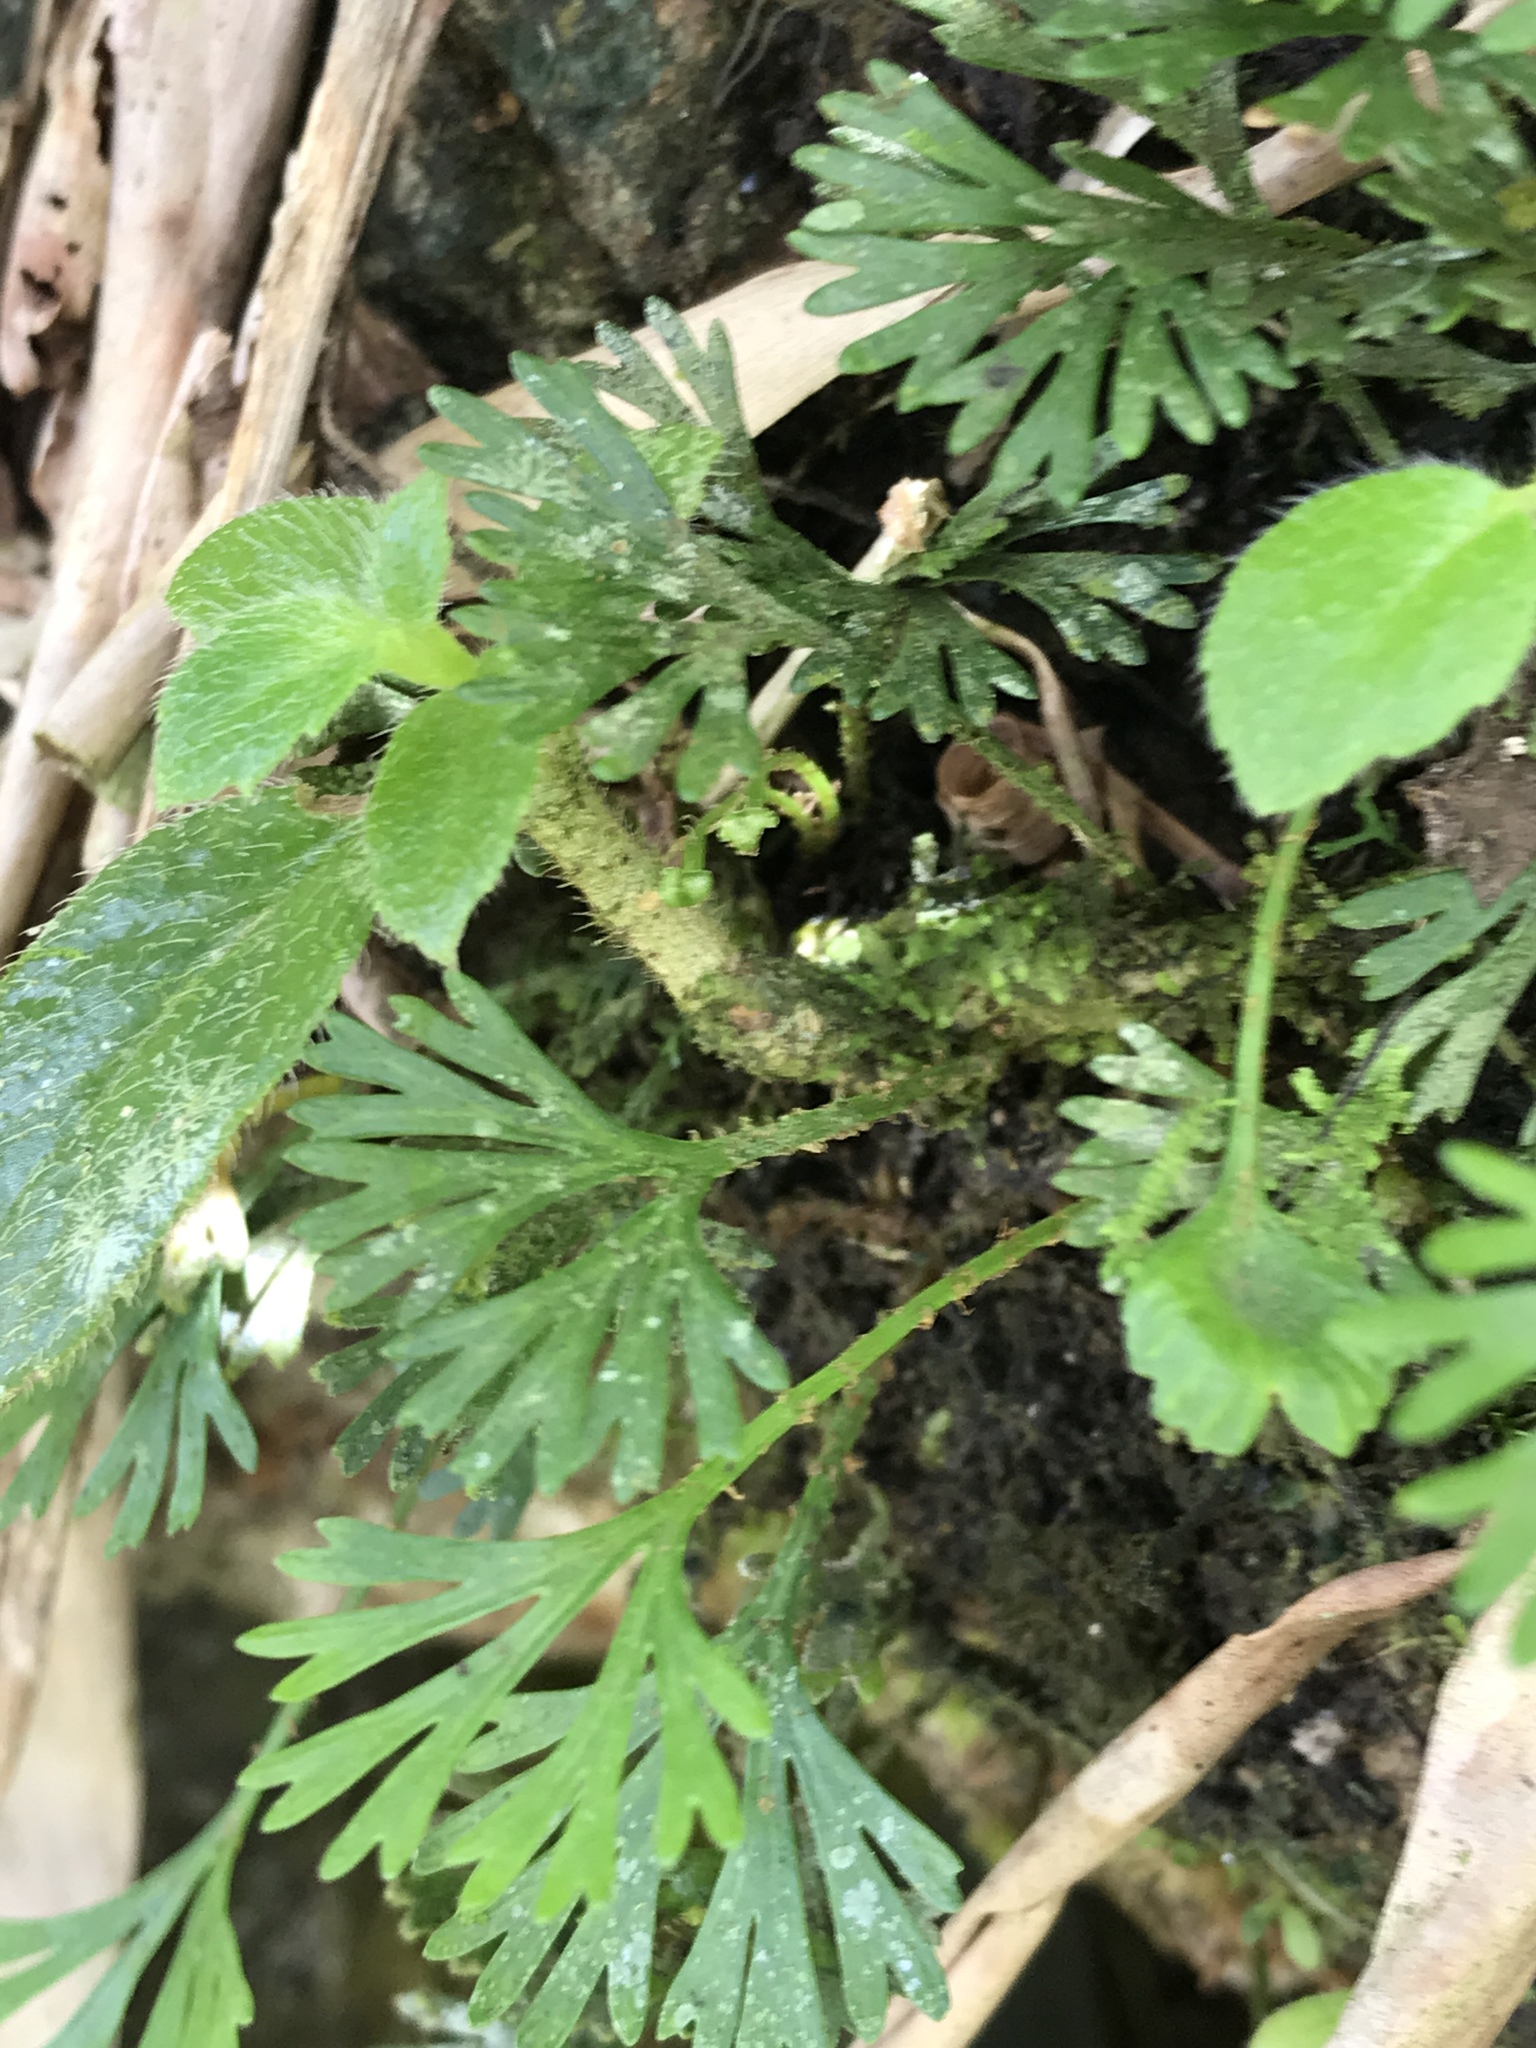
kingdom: Plantae
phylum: Tracheophyta
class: Polypodiopsida
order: Polypodiales
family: Dryopteridaceae
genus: Elaphoglossum
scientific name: Elaphoglossum peltatum
